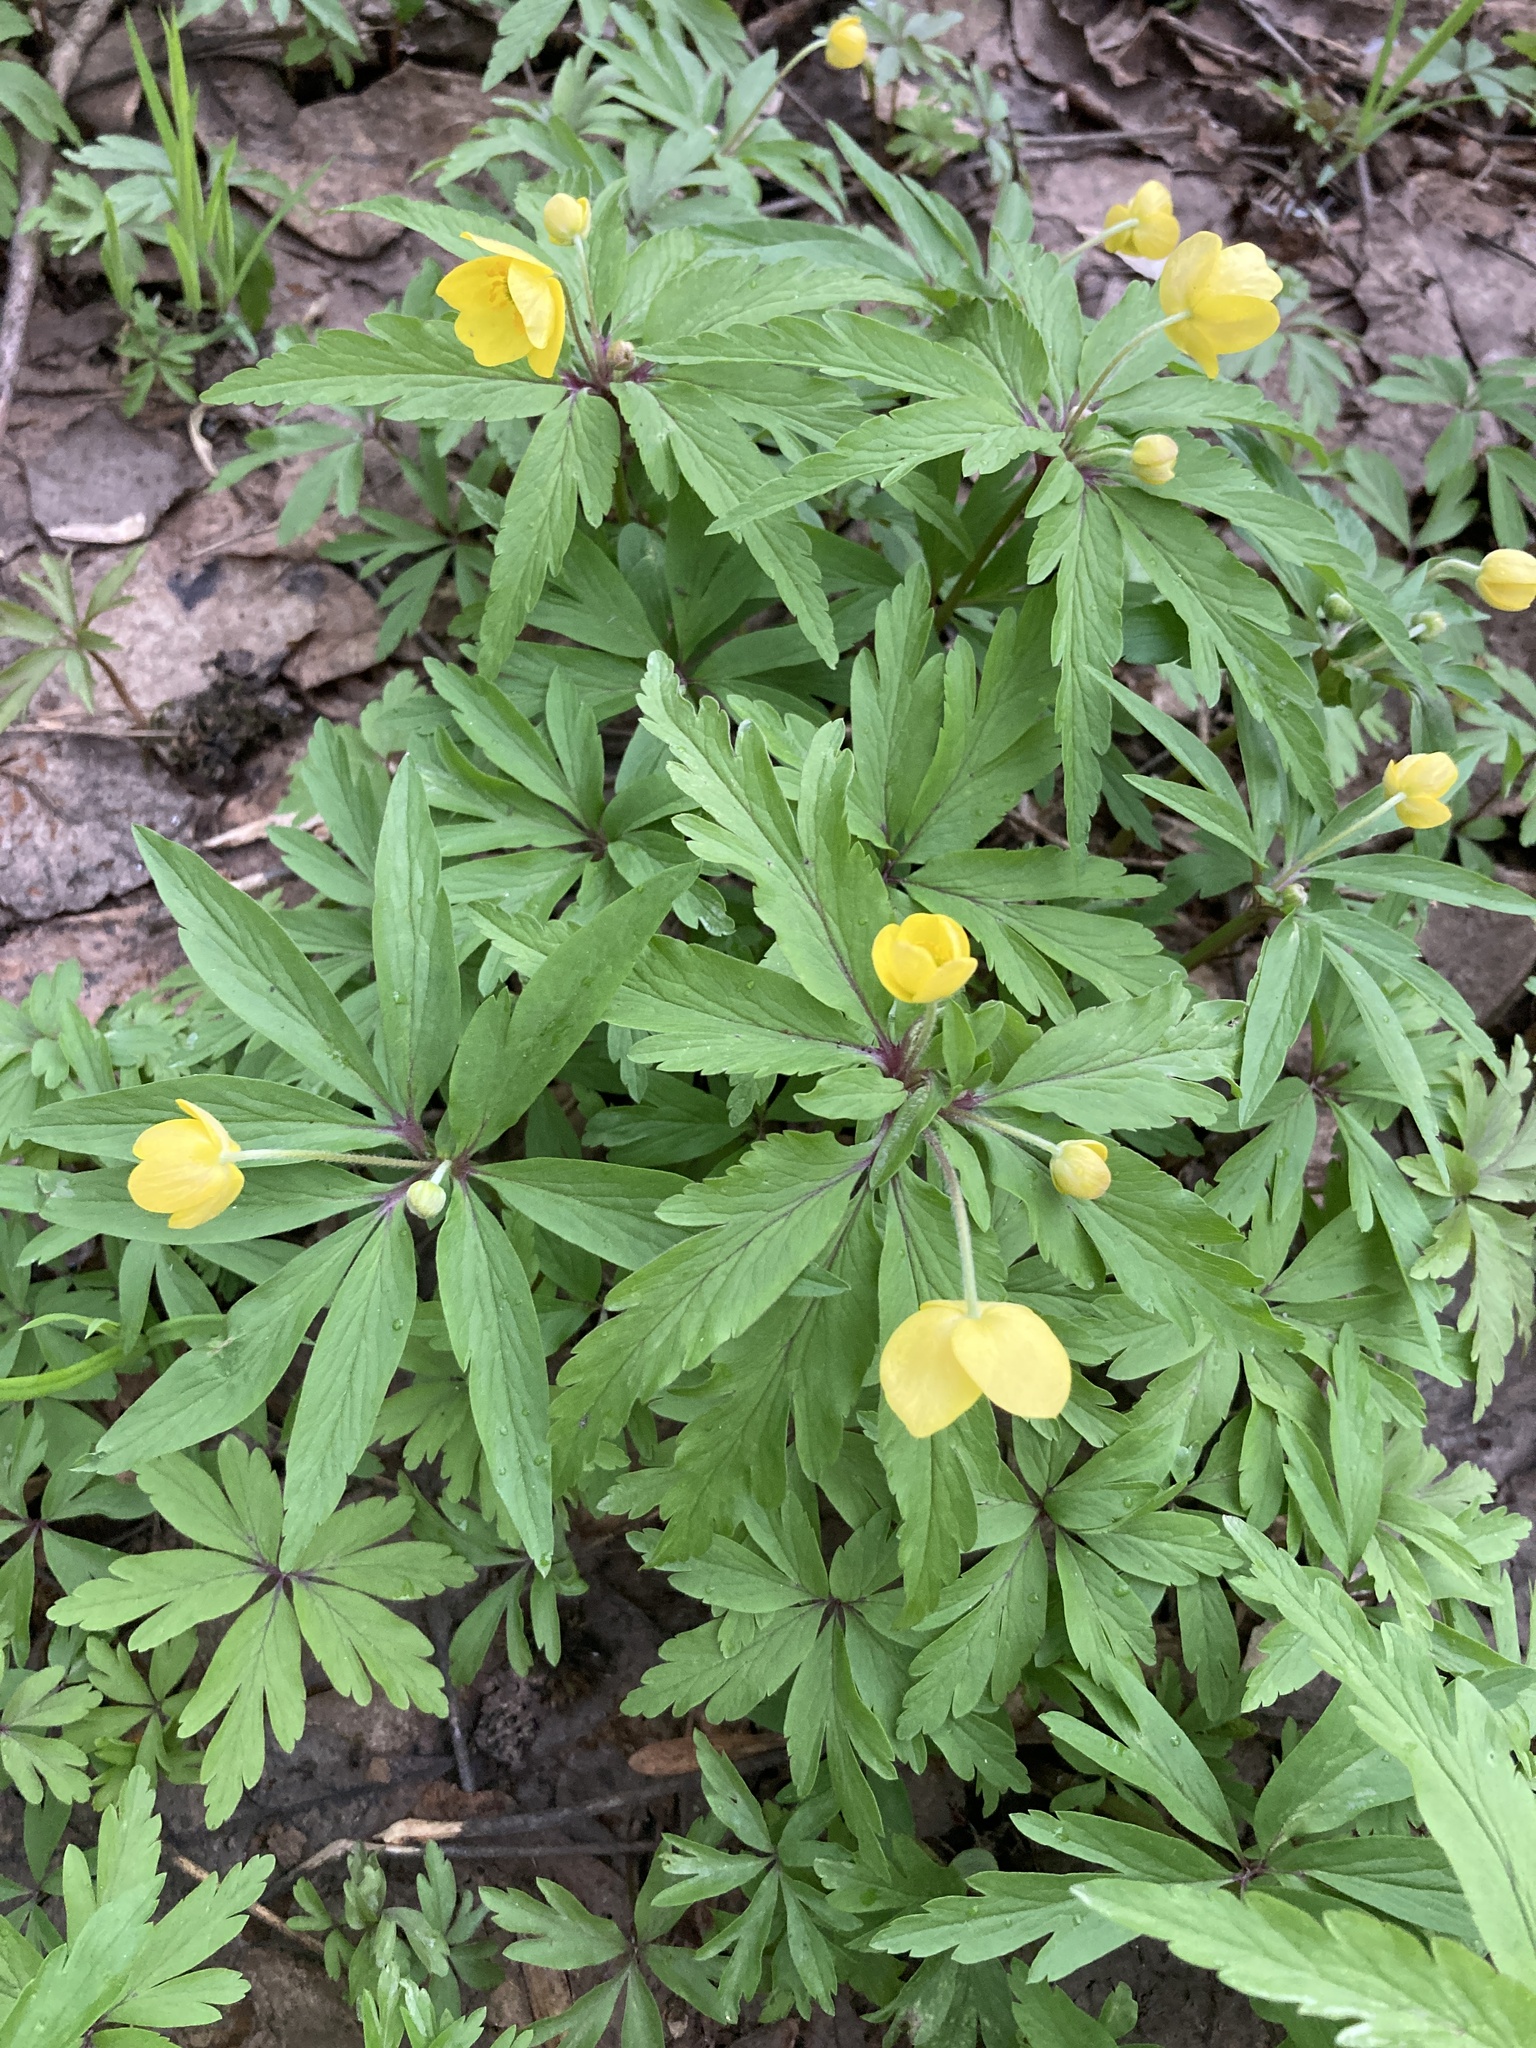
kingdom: Plantae
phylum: Tracheophyta
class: Magnoliopsida
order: Ranunculales
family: Ranunculaceae
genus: Anemone
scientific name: Anemone ranunculoides
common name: Yellow anemone
